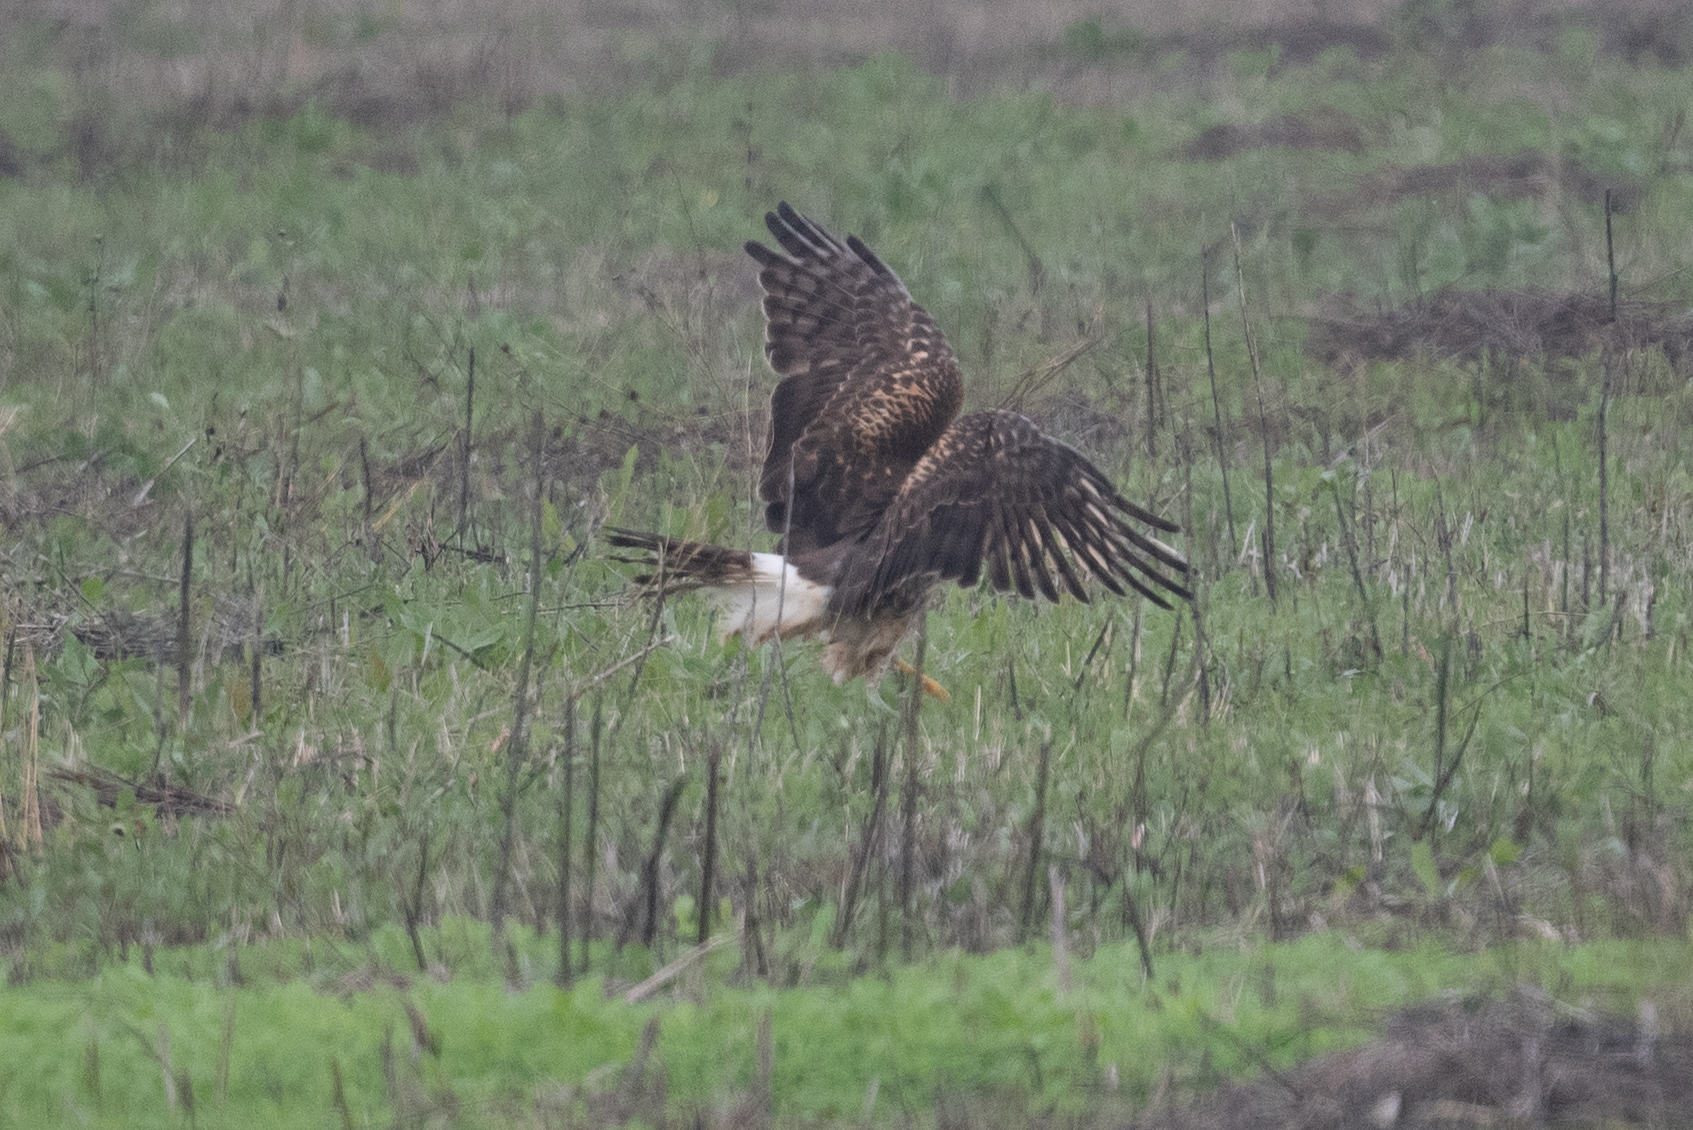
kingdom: Animalia
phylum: Chordata
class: Aves
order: Accipitriformes
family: Accipitridae
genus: Circus
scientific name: Circus cyaneus
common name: Hen harrier
